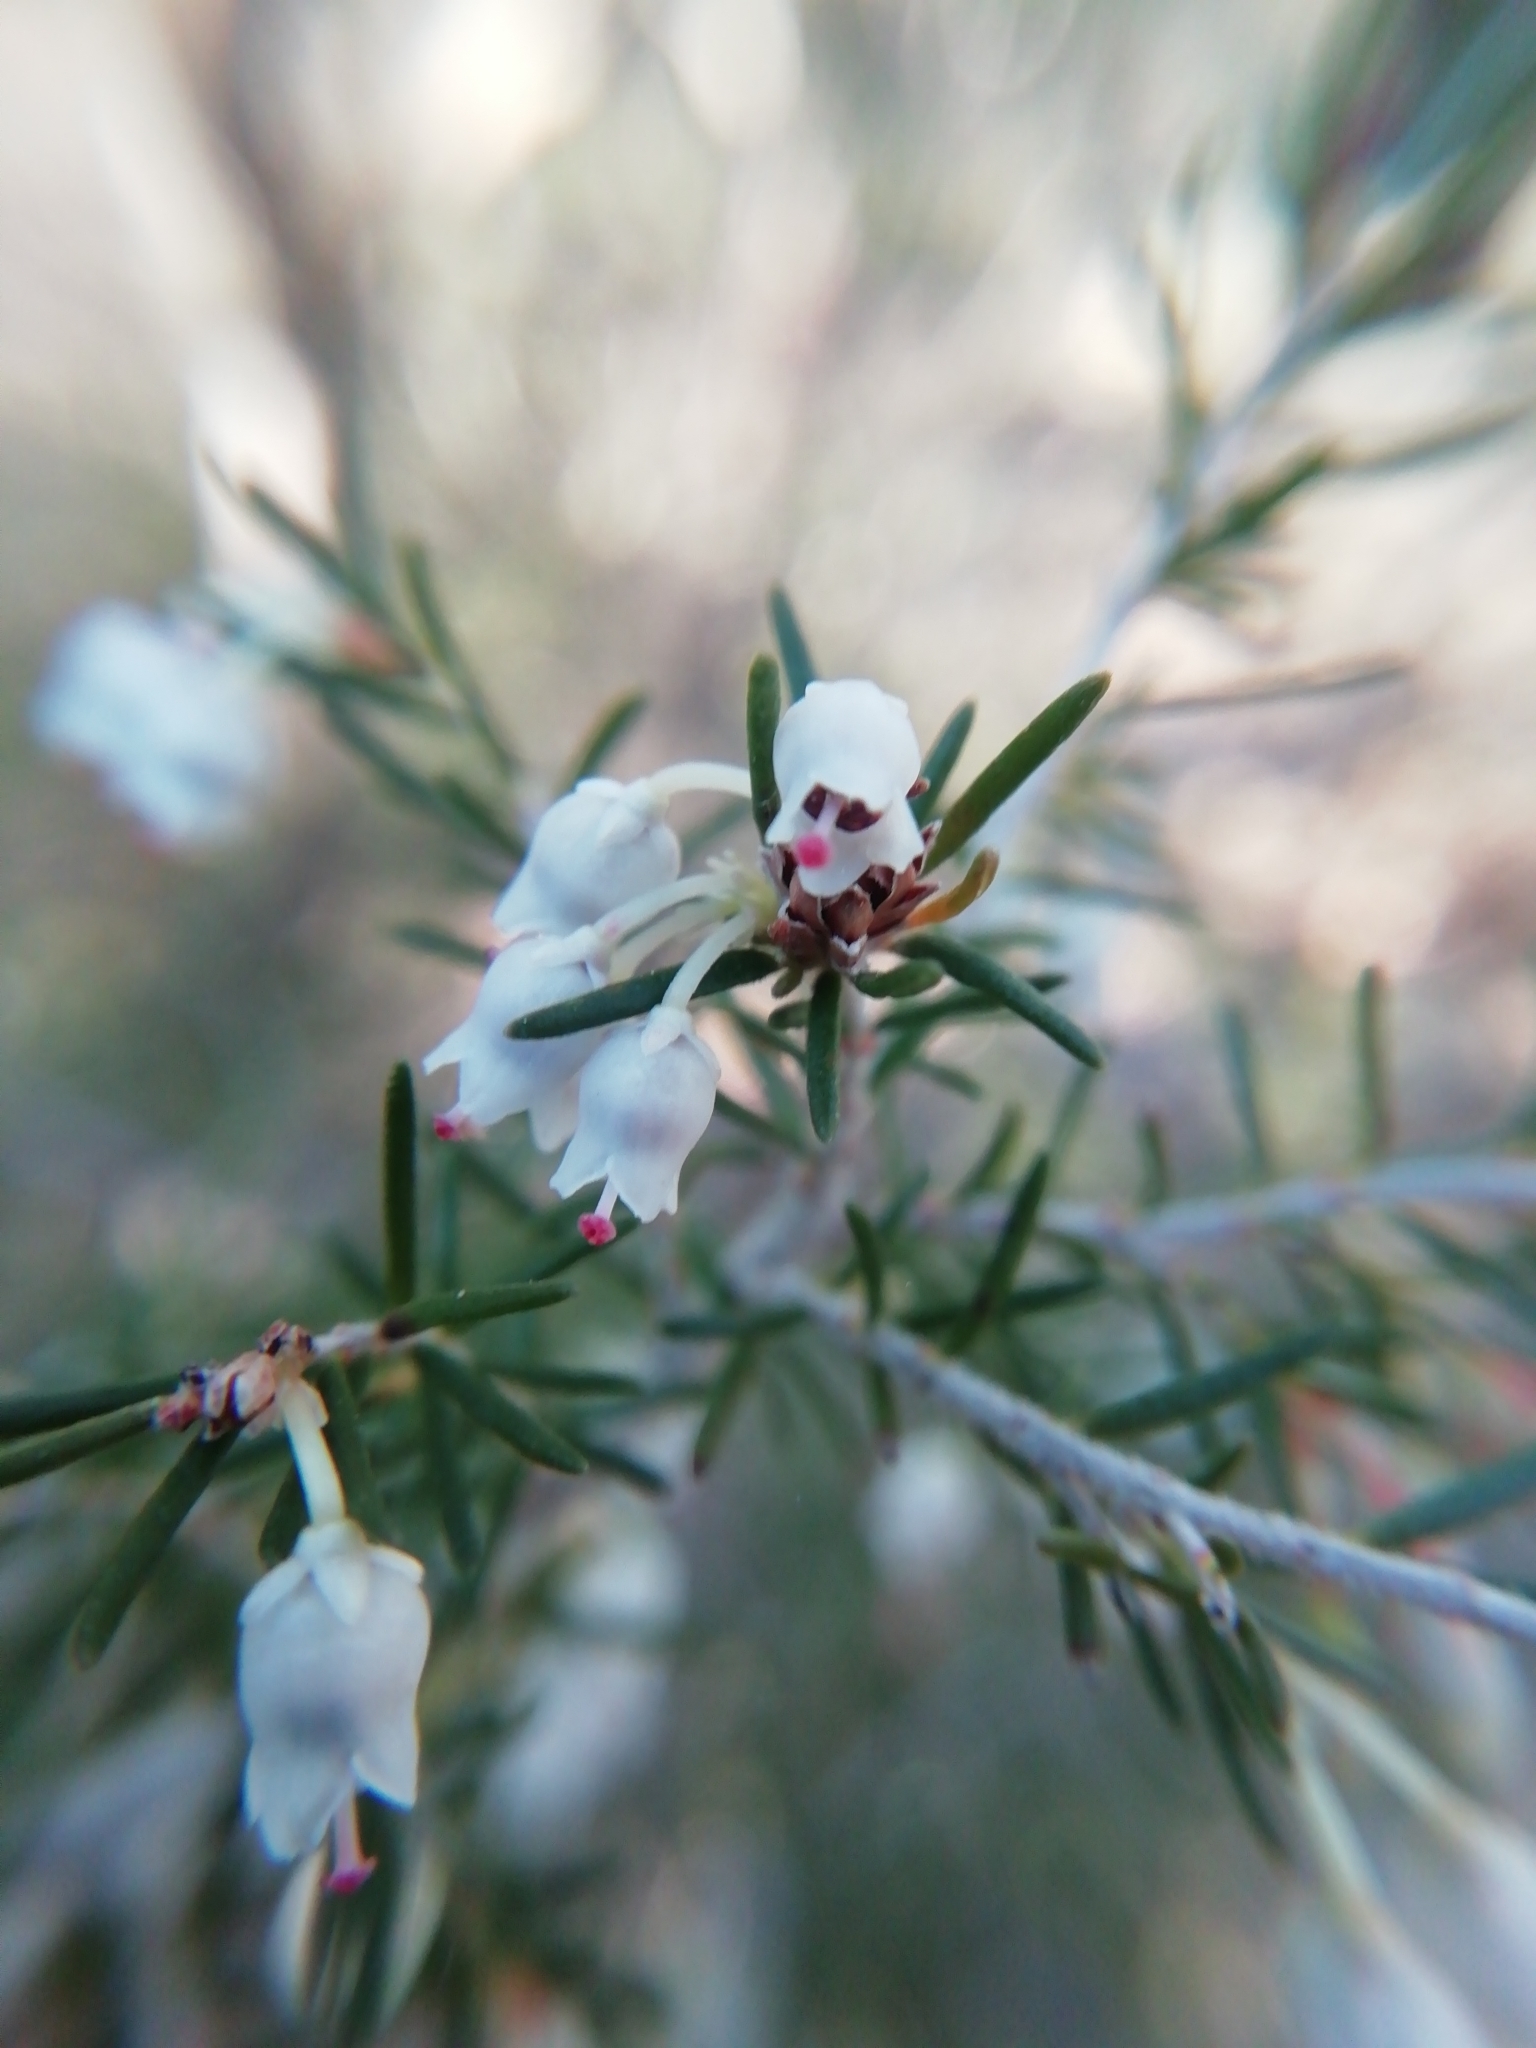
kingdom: Plantae
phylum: Tracheophyta
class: Magnoliopsida
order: Ericales
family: Ericaceae
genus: Erica
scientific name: Erica arborea
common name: Tree heath
